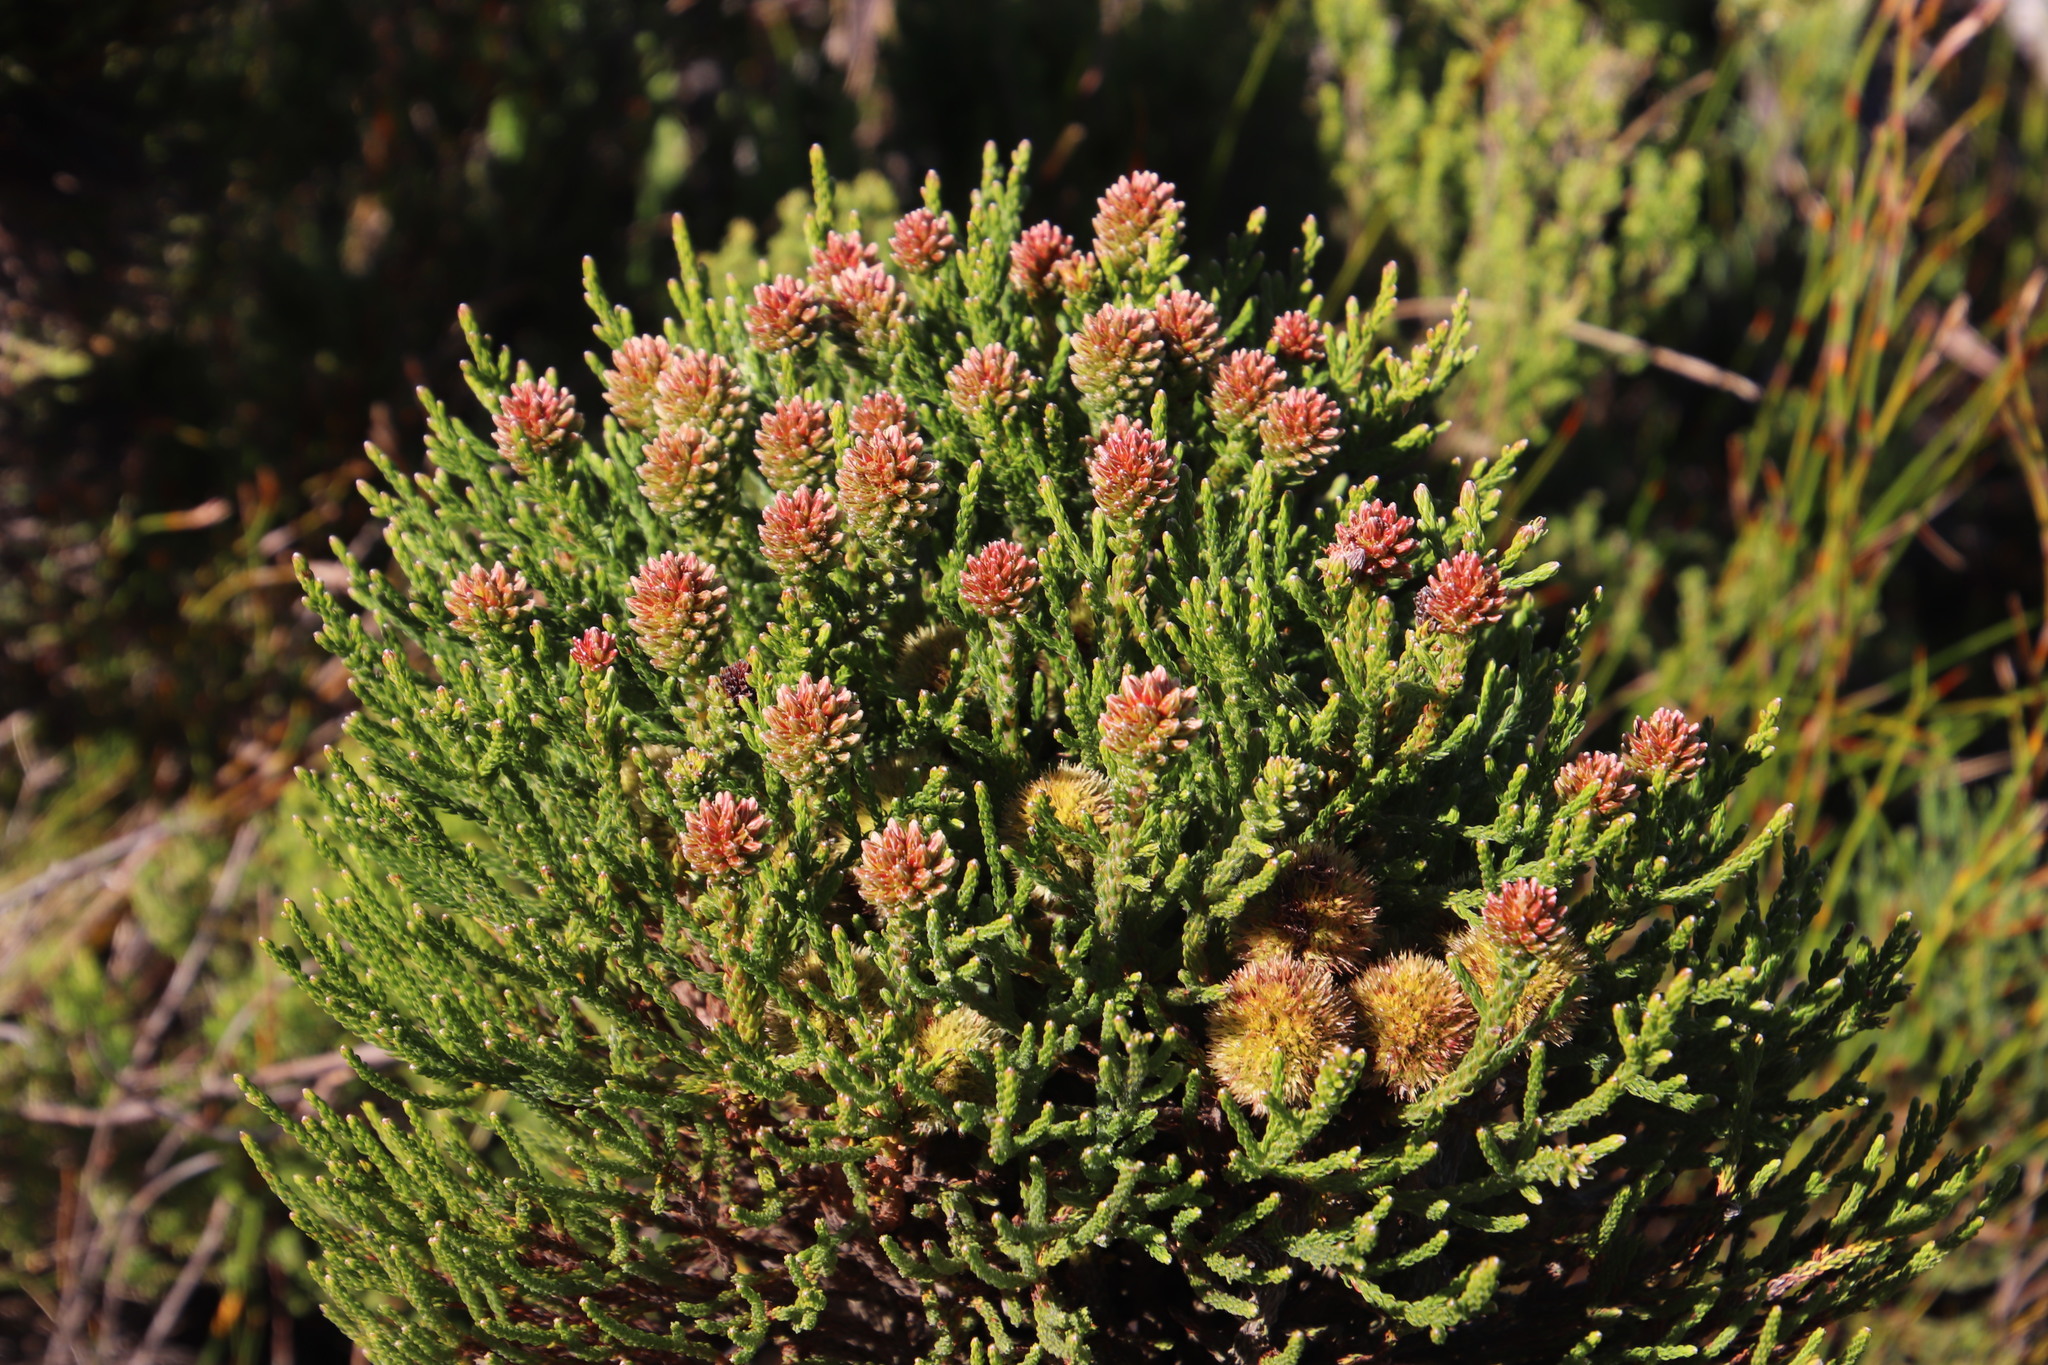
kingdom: Plantae
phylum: Tracheophyta
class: Magnoliopsida
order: Bruniales
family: Bruniaceae
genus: Brunia
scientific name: Brunia fragarioides
